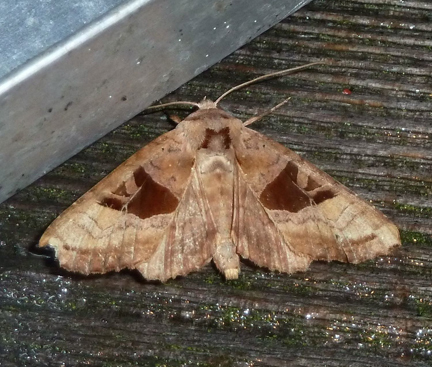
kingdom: Animalia
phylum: Arthropoda
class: Insecta
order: Lepidoptera
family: Noctuidae
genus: Phlogophora
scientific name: Phlogophora periculosa
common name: Brown angle shades
